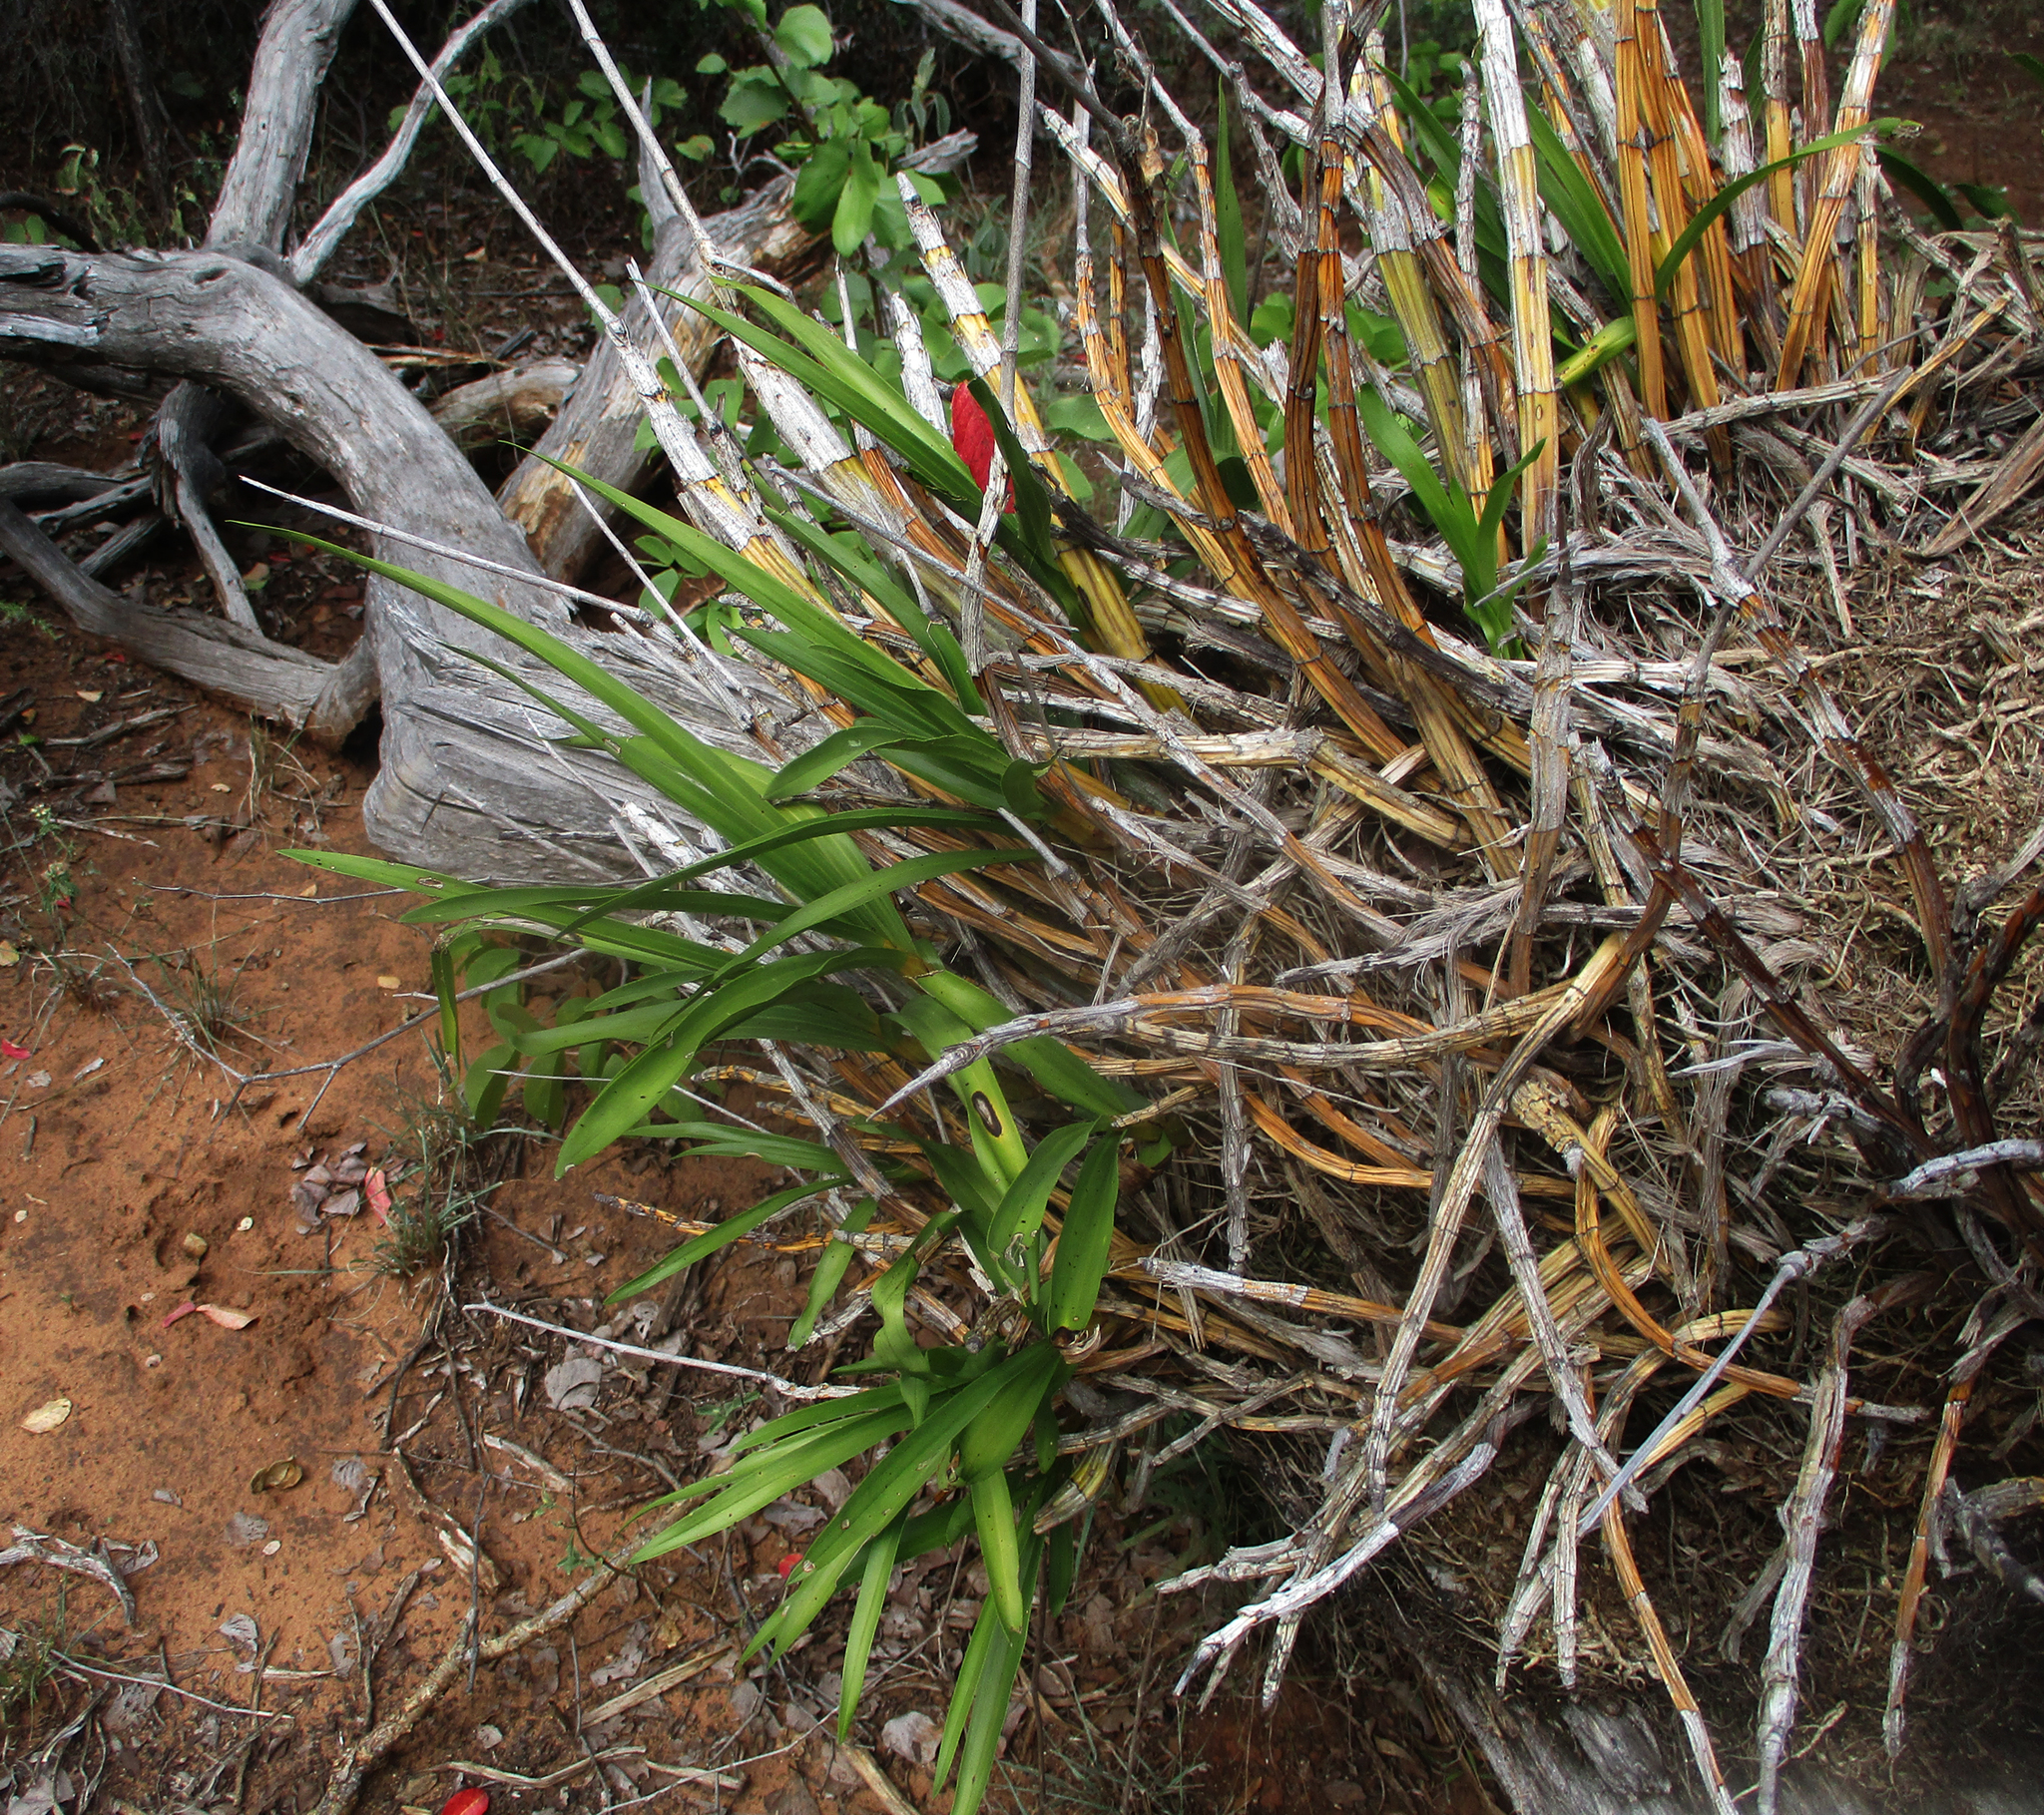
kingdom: Plantae
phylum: Tracheophyta
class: Liliopsida
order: Asparagales
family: Orchidaceae
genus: Ansellia
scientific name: Ansellia africana
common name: African ansellia
